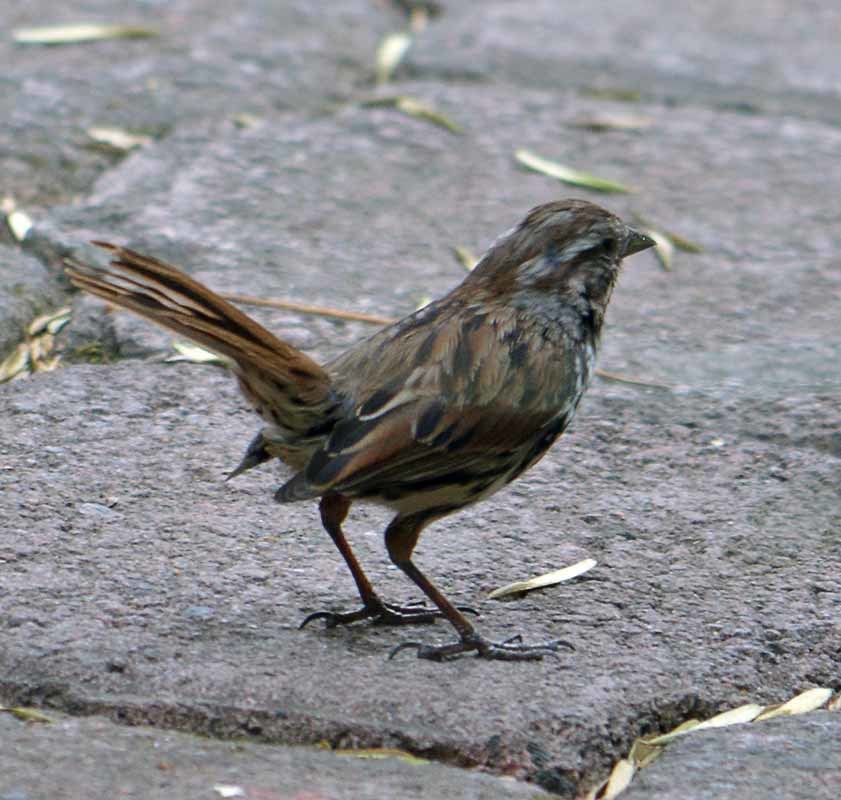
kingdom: Animalia
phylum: Chordata
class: Aves
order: Passeriformes
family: Passerellidae
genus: Melospiza
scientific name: Melospiza melodia
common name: Song sparrow
